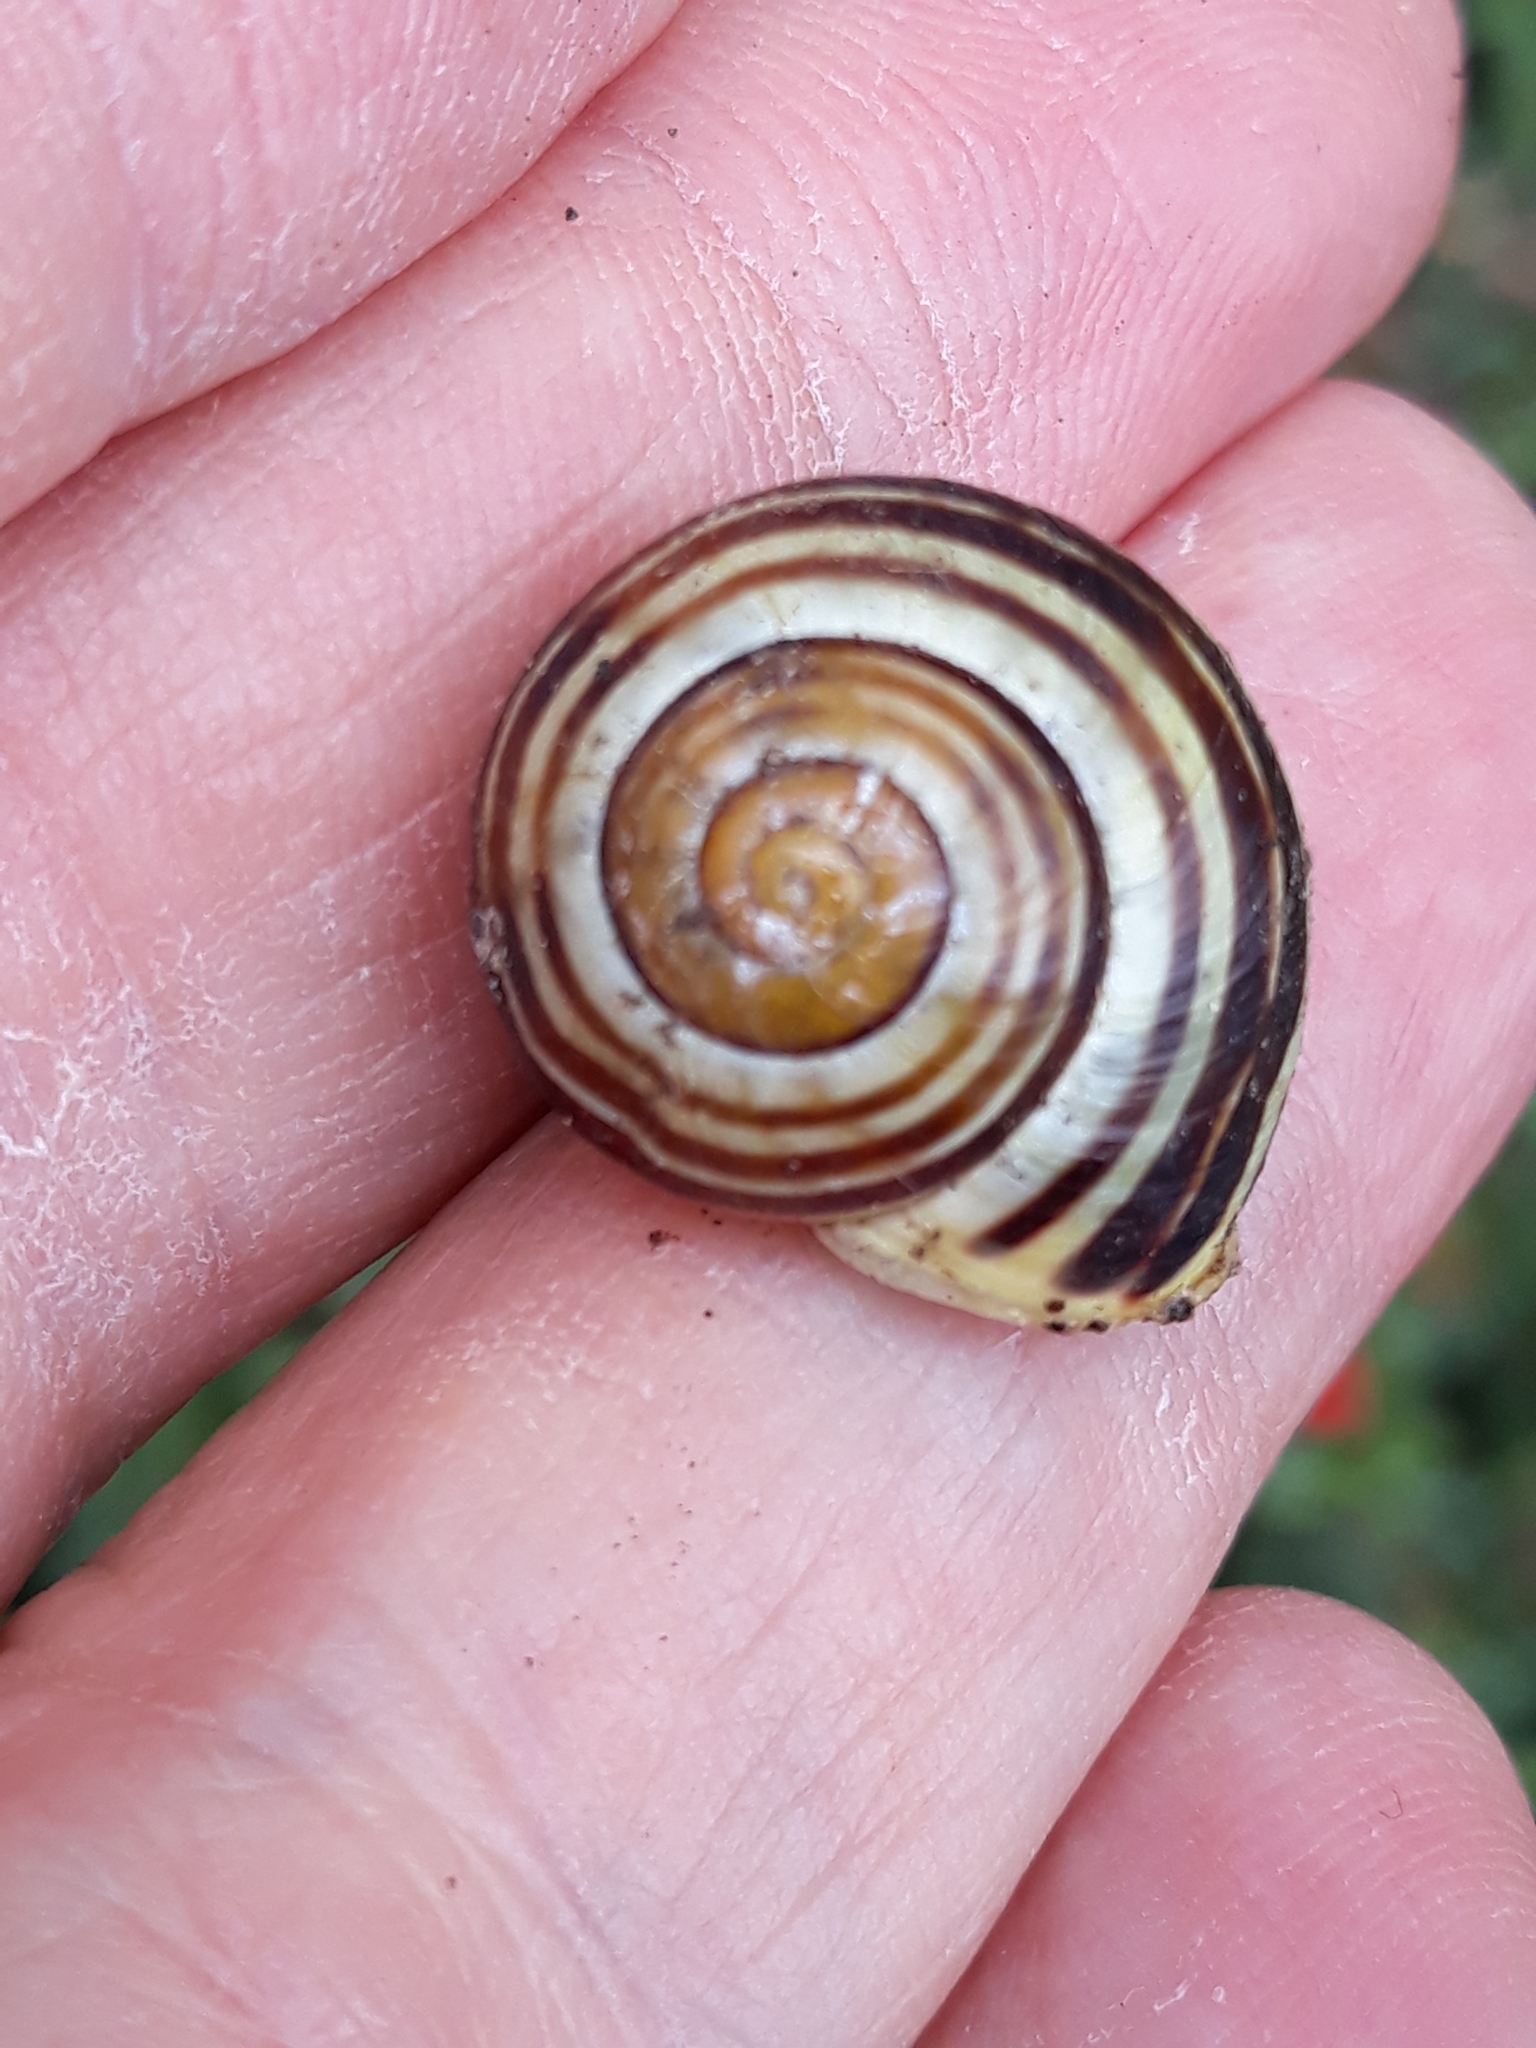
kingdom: Animalia
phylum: Mollusca
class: Gastropoda
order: Stylommatophora
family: Helicidae
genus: Cepaea
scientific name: Cepaea hortensis
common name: White-lip gardensnail
